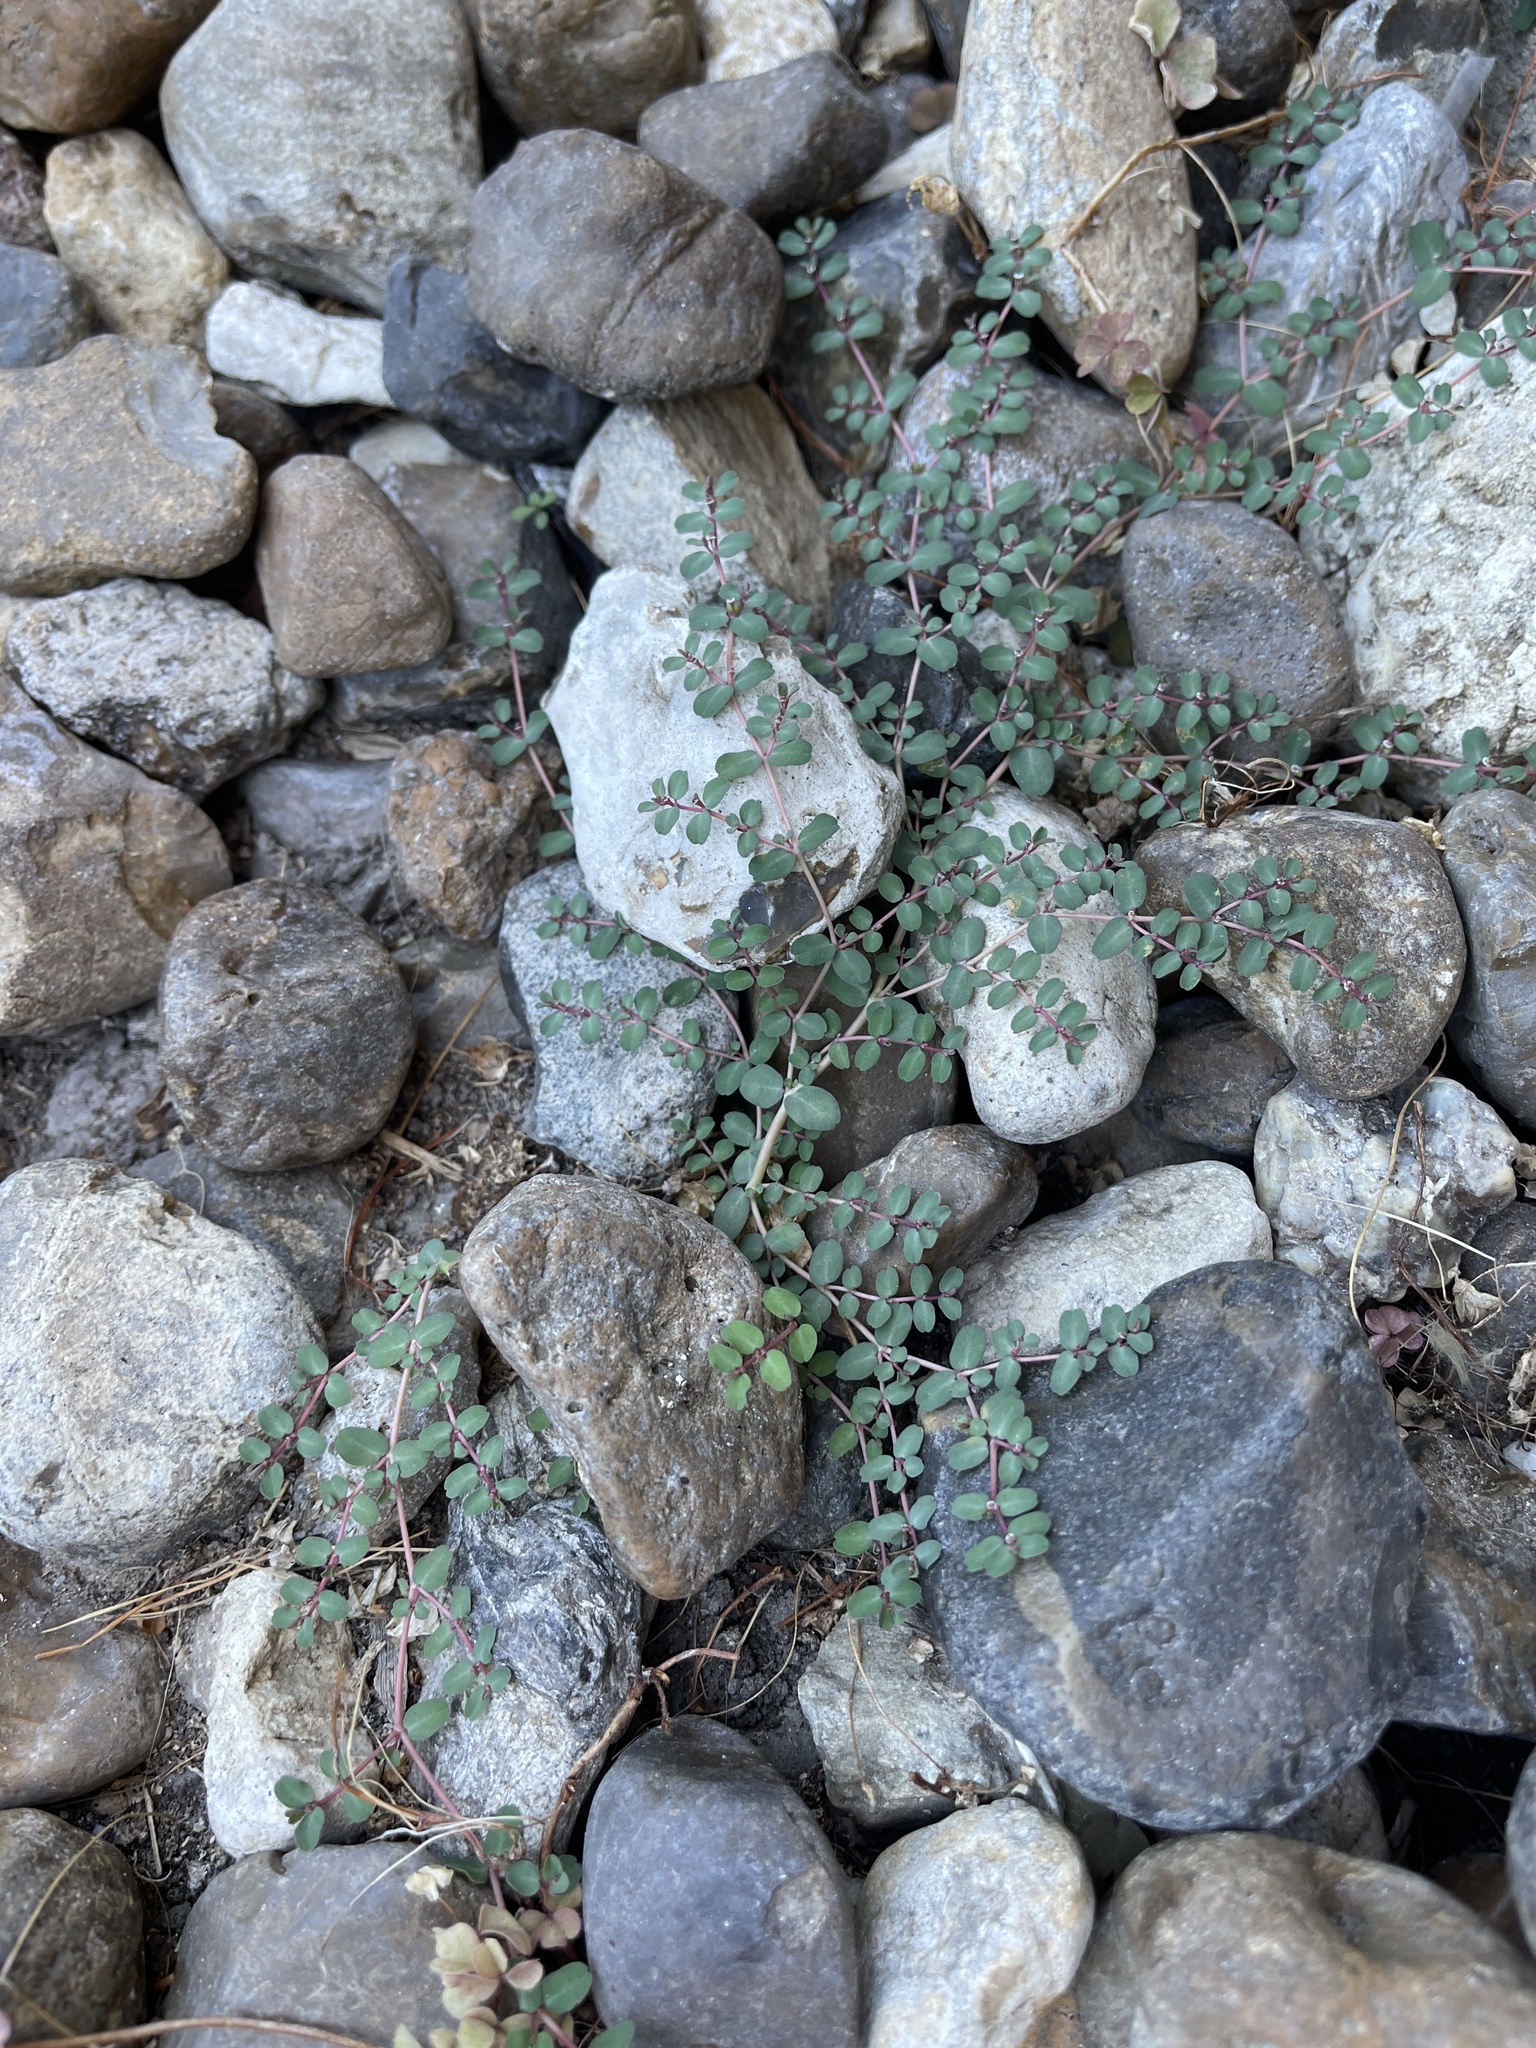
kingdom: Plantae
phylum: Tracheophyta
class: Magnoliopsida
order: Malpighiales
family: Euphorbiaceae
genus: Euphorbia
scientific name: Euphorbia prostrata
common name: Prostrate sandmat
